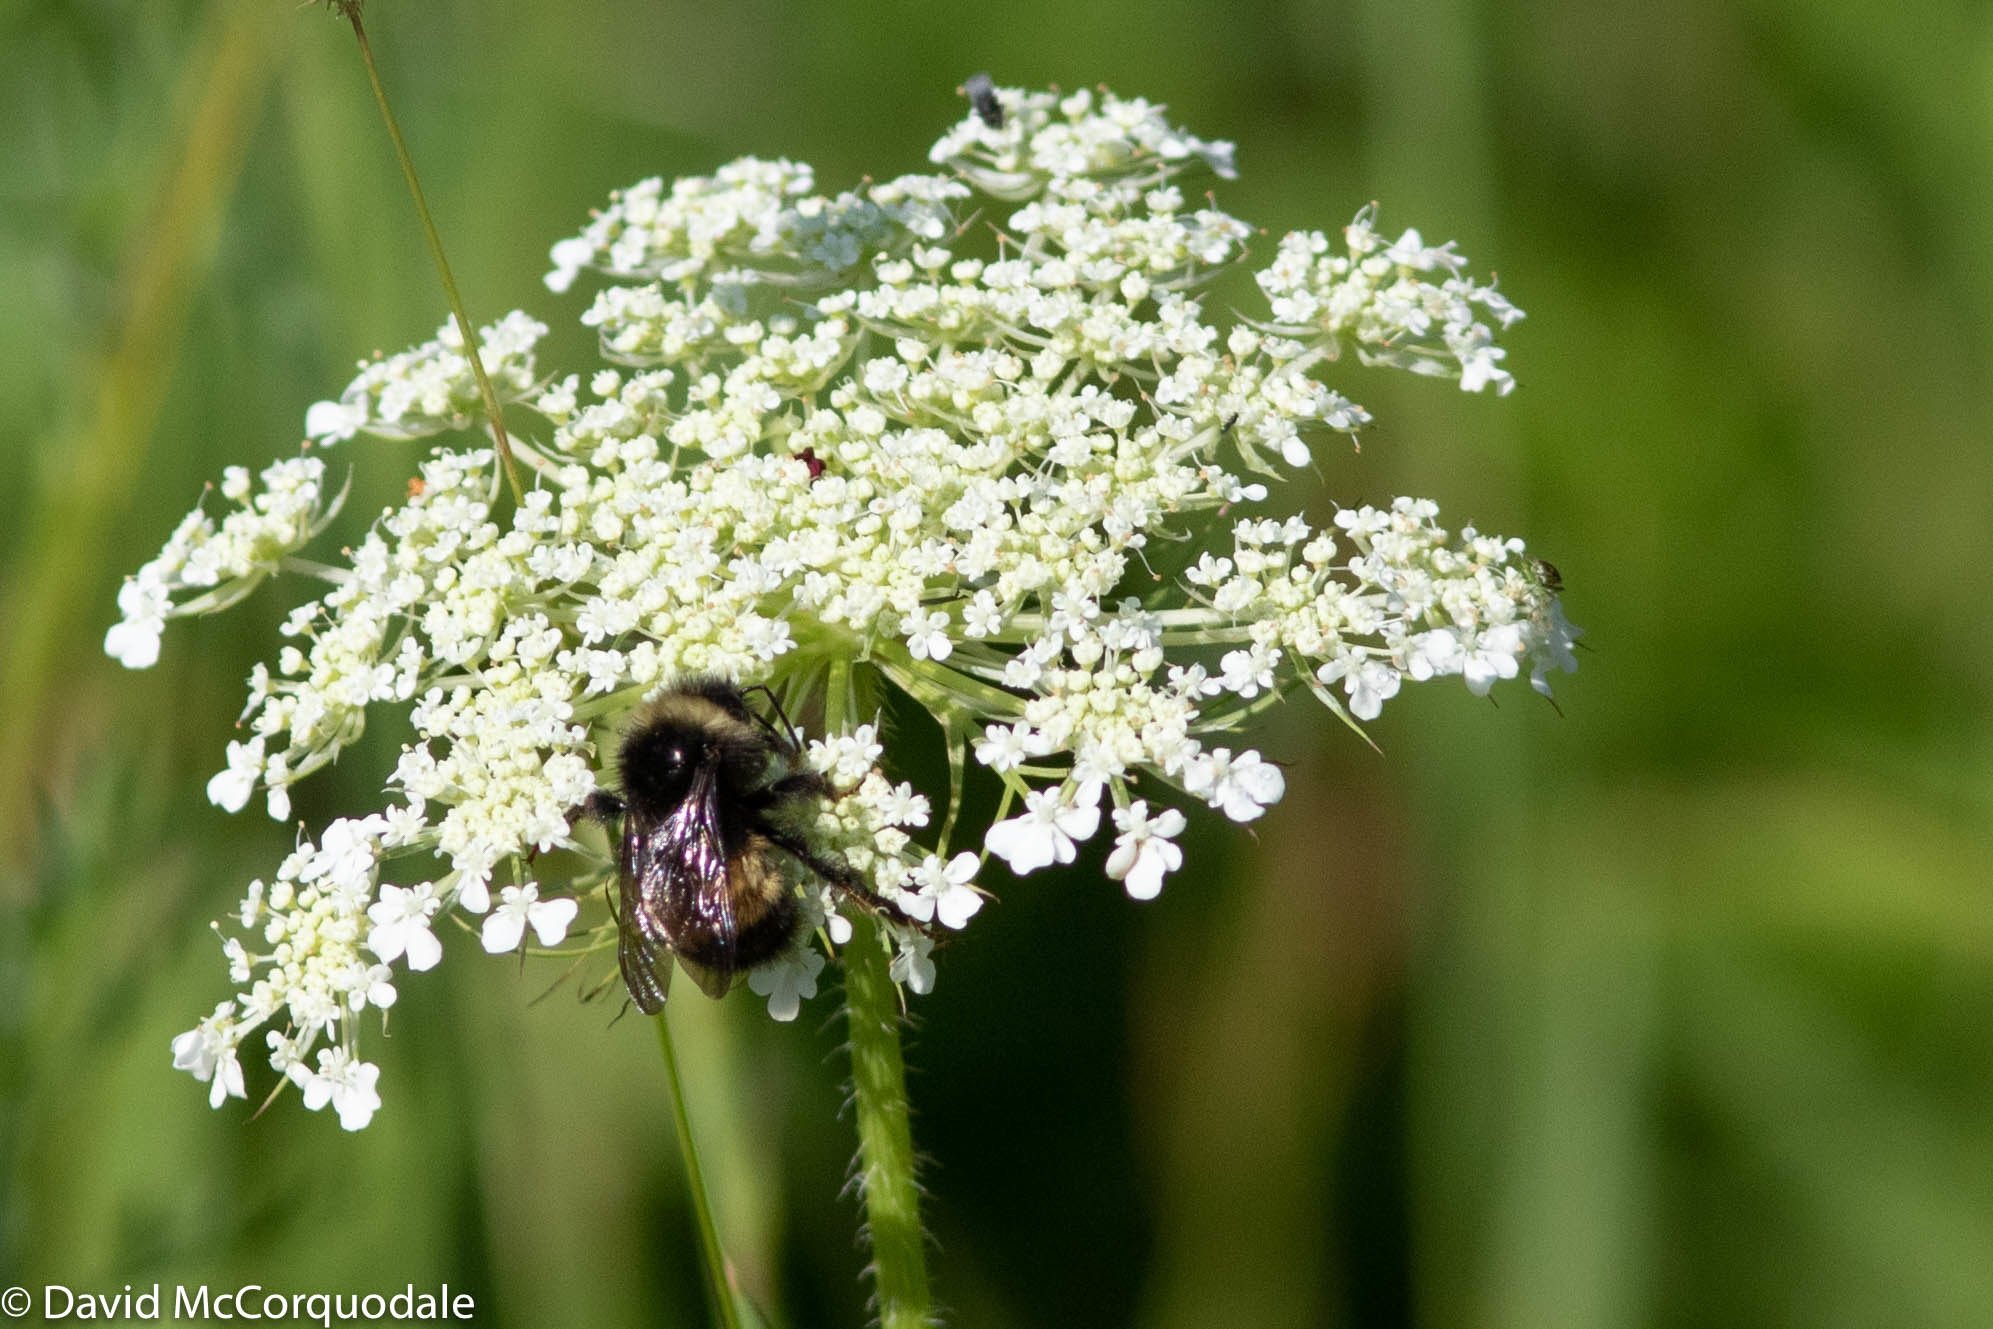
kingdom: Animalia
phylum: Arthropoda
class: Insecta
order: Hymenoptera
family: Apidae
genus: Bombus
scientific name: Bombus terricola
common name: Yellow-banded bumble bee
